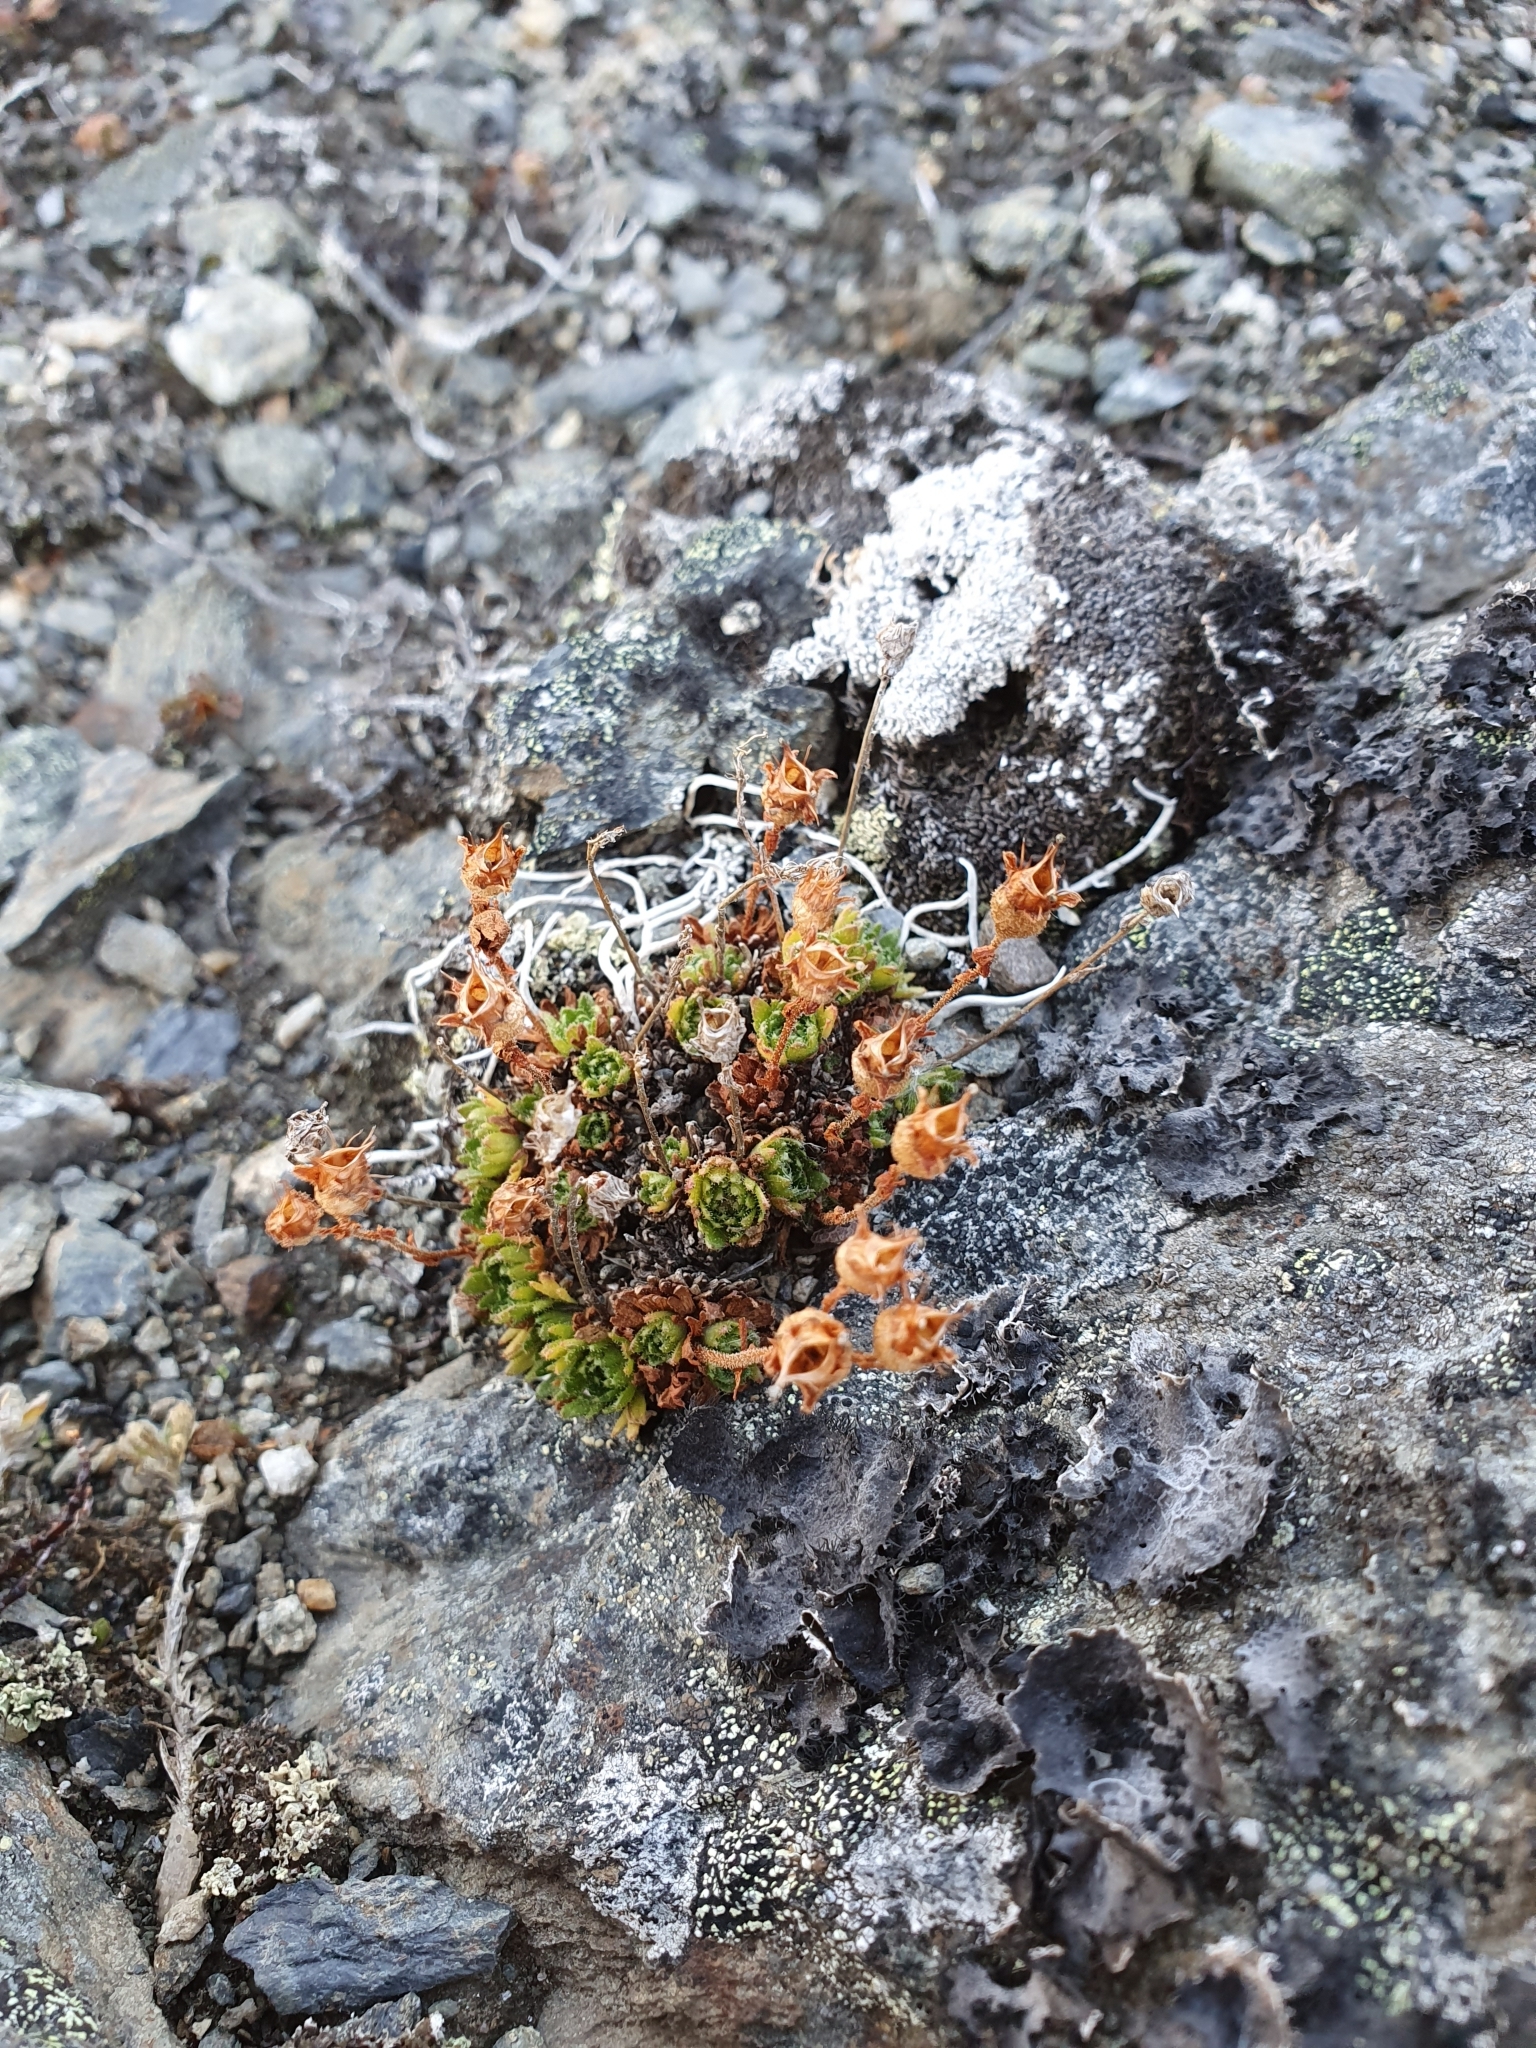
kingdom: Plantae
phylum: Tracheophyta
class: Magnoliopsida
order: Saxifragales
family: Saxifragaceae
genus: Saxifraga
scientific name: Saxifraga cespitosa
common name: Tufted saxifrage
